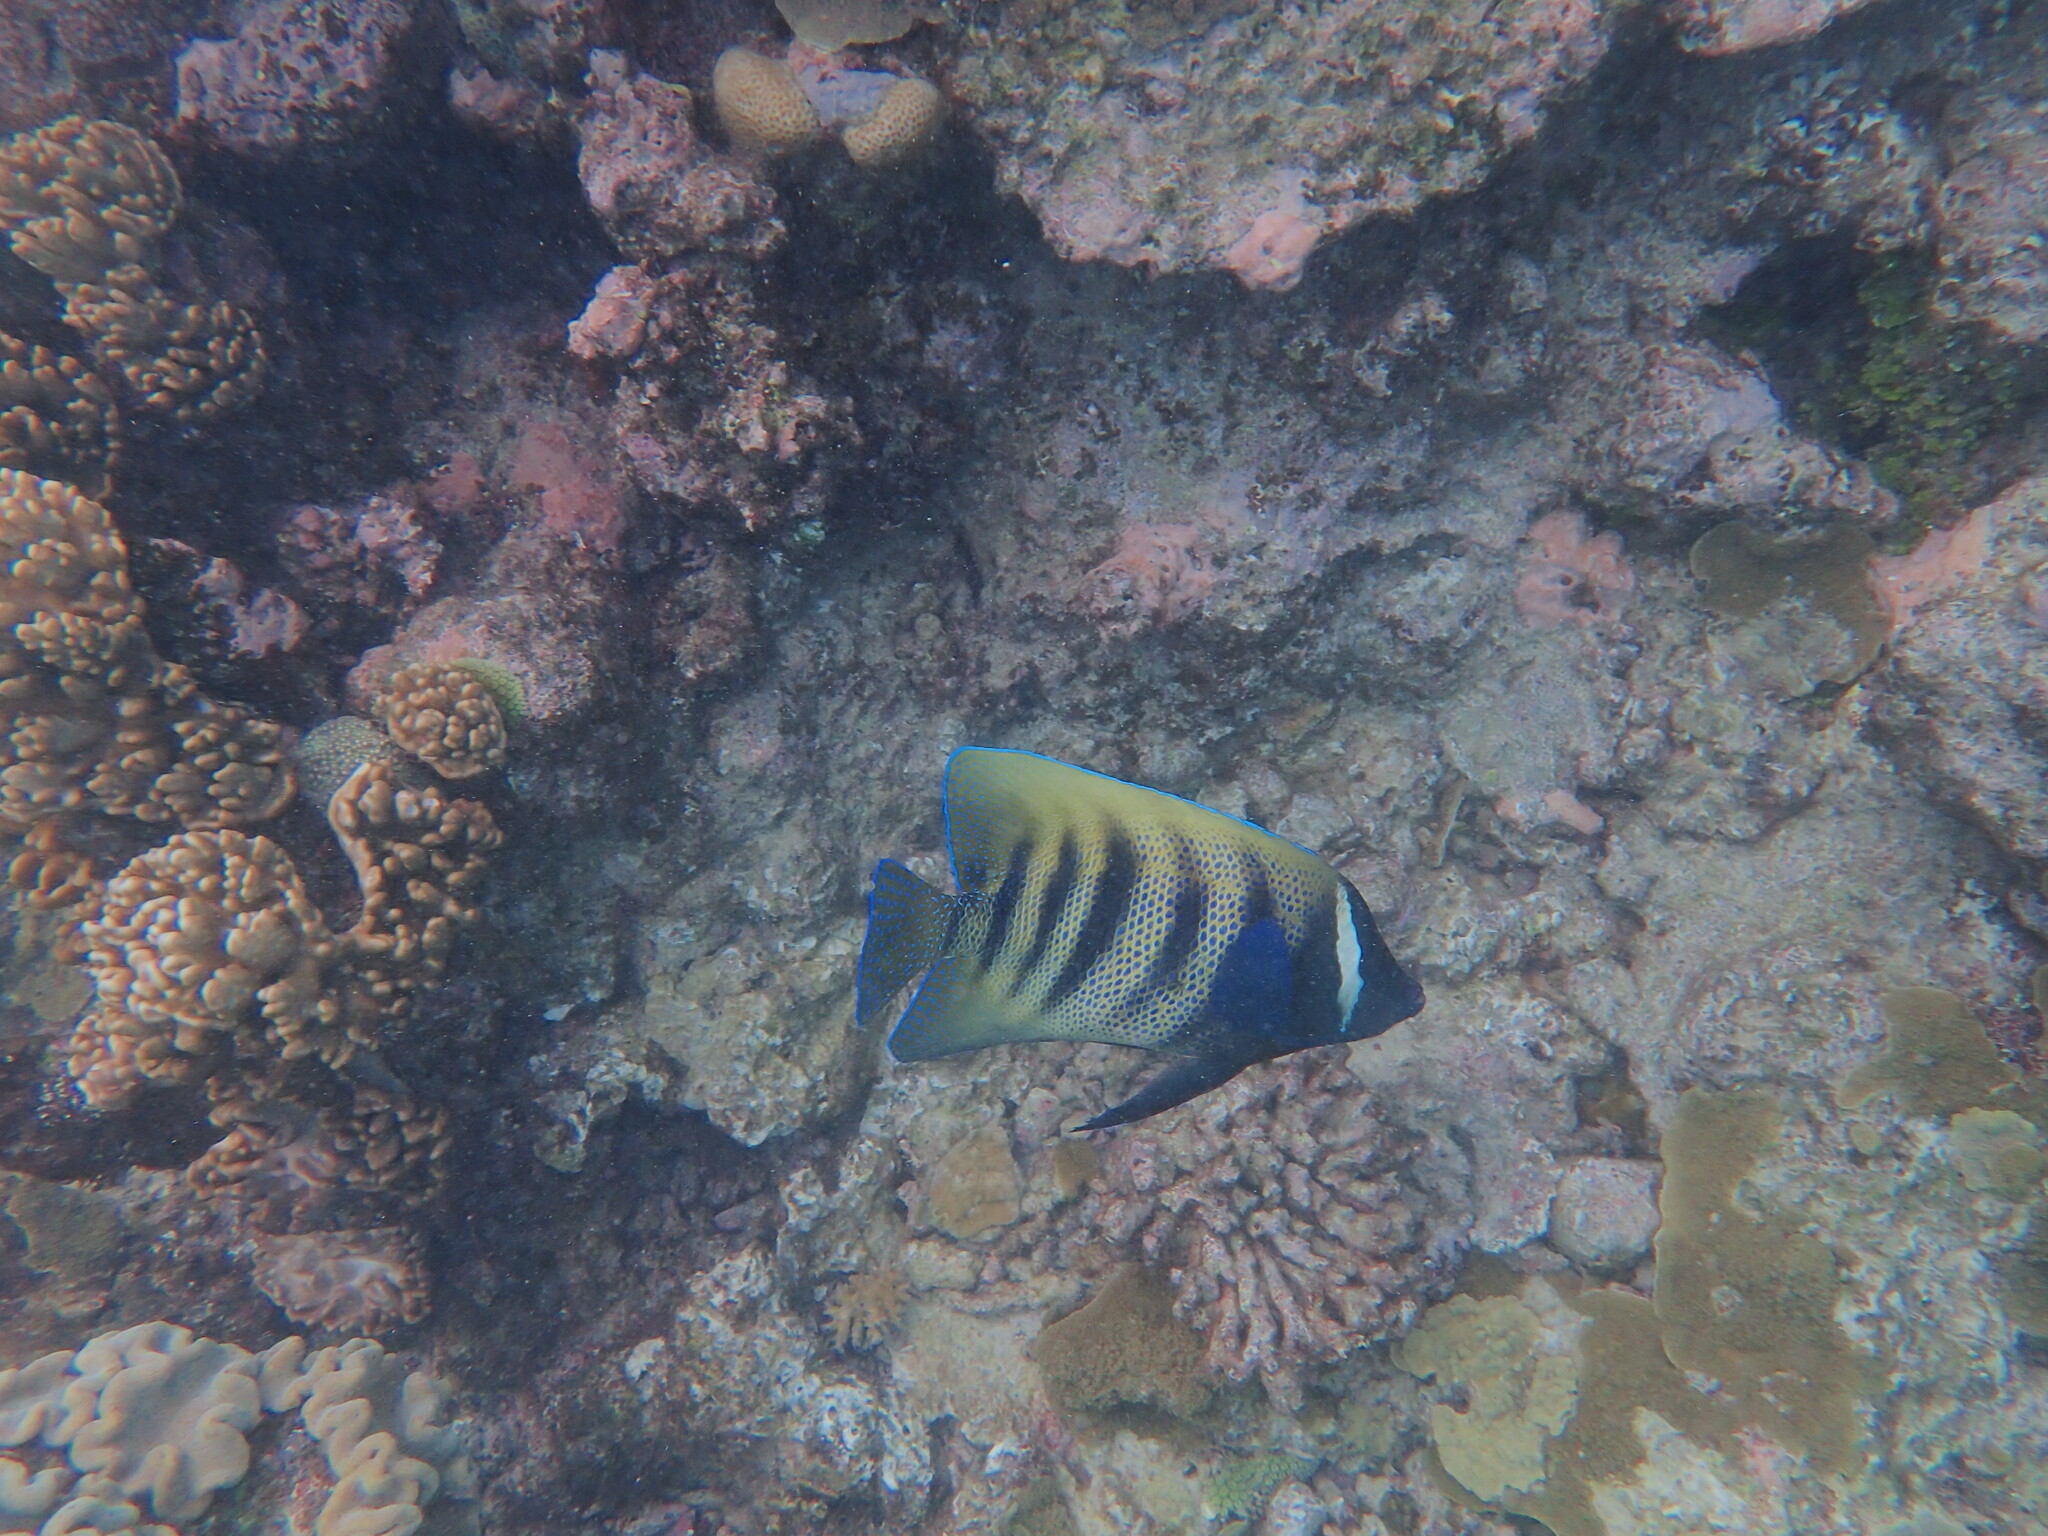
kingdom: Animalia
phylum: Chordata
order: Perciformes
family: Pomacanthidae
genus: Pomacanthus
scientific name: Pomacanthus sexstriatus
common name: Six-banded angelfish
